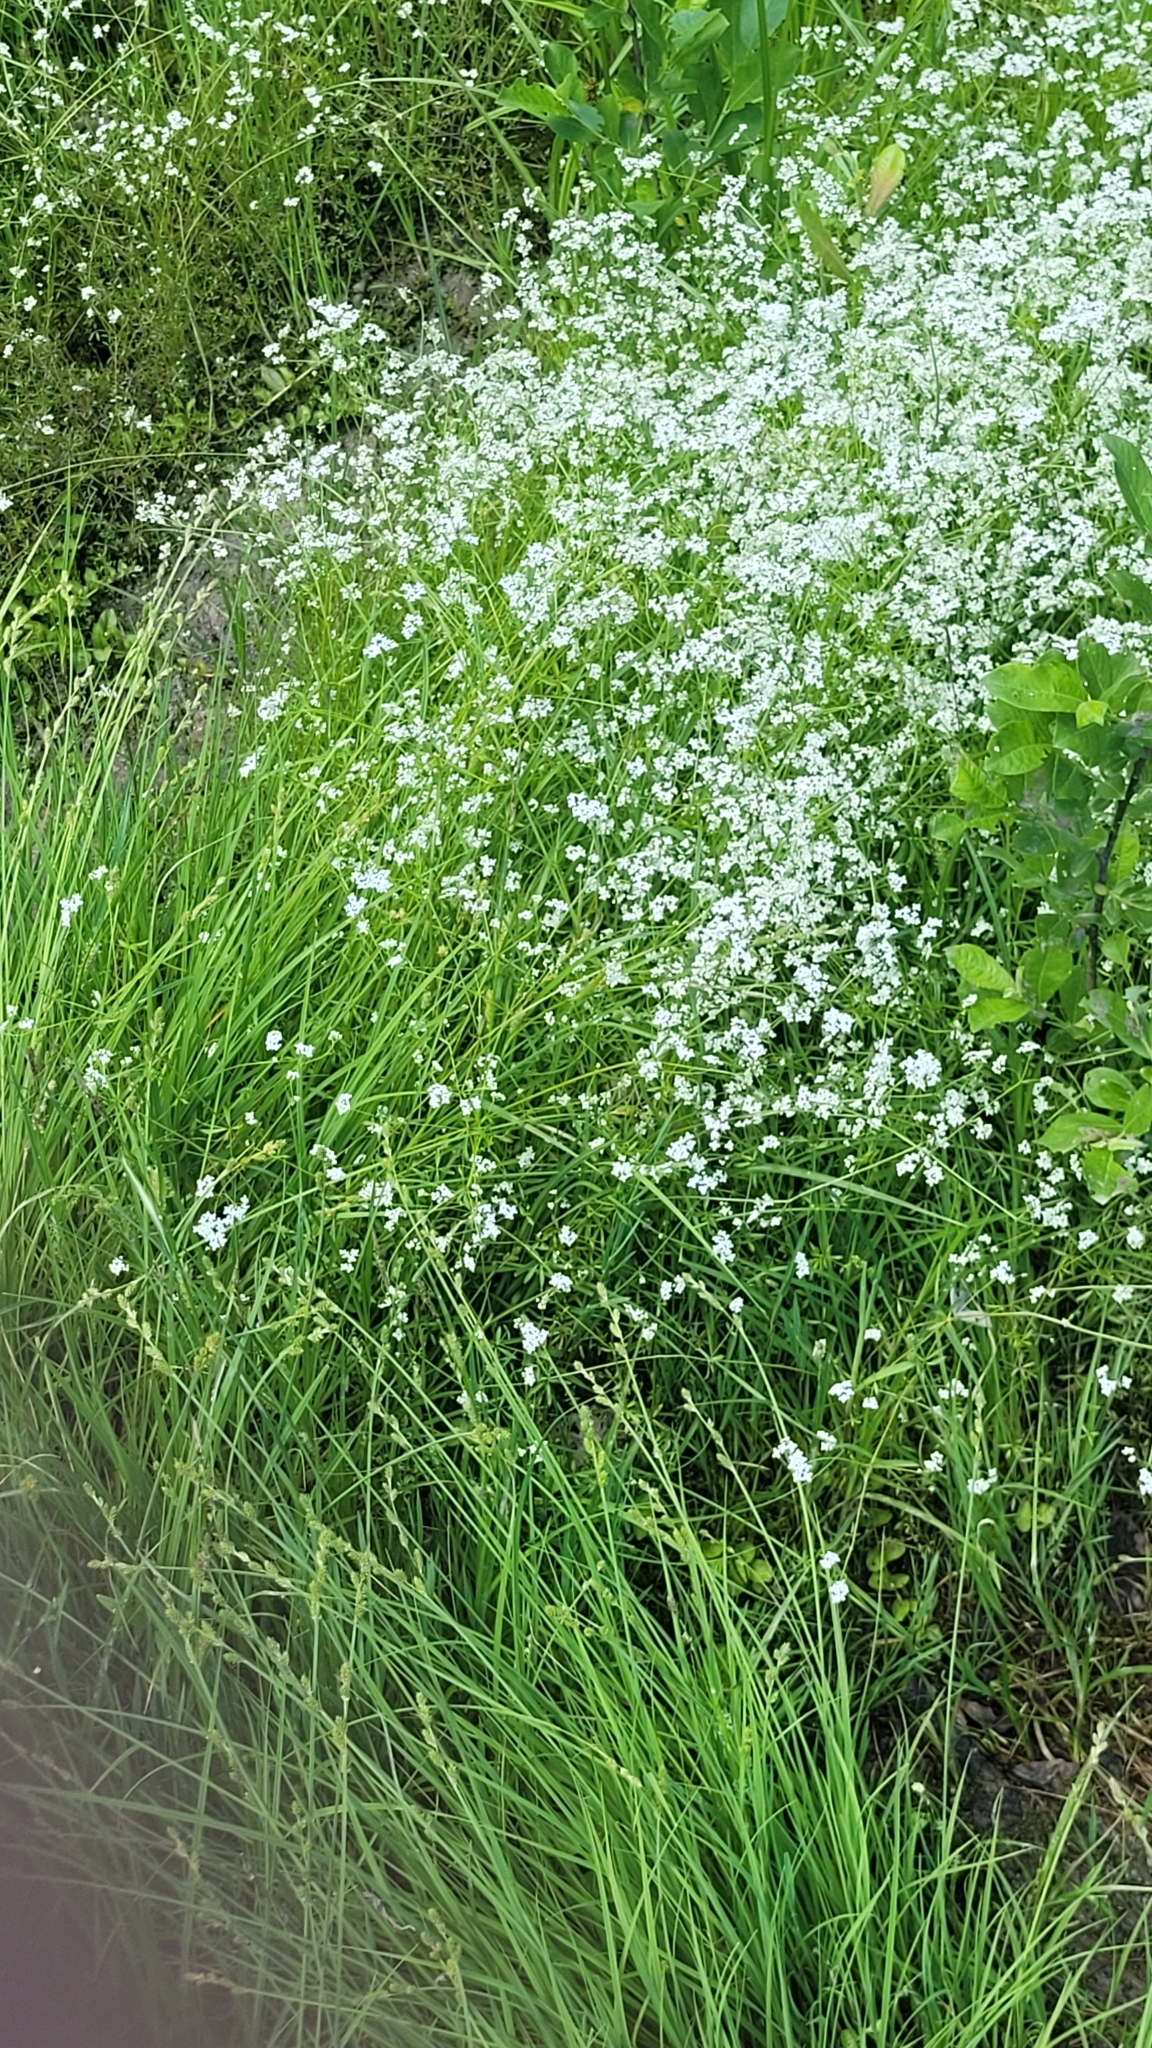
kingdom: Plantae
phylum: Tracheophyta
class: Magnoliopsida
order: Gentianales
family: Rubiaceae
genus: Galium
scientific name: Galium palustre
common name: Common marsh-bedstraw
